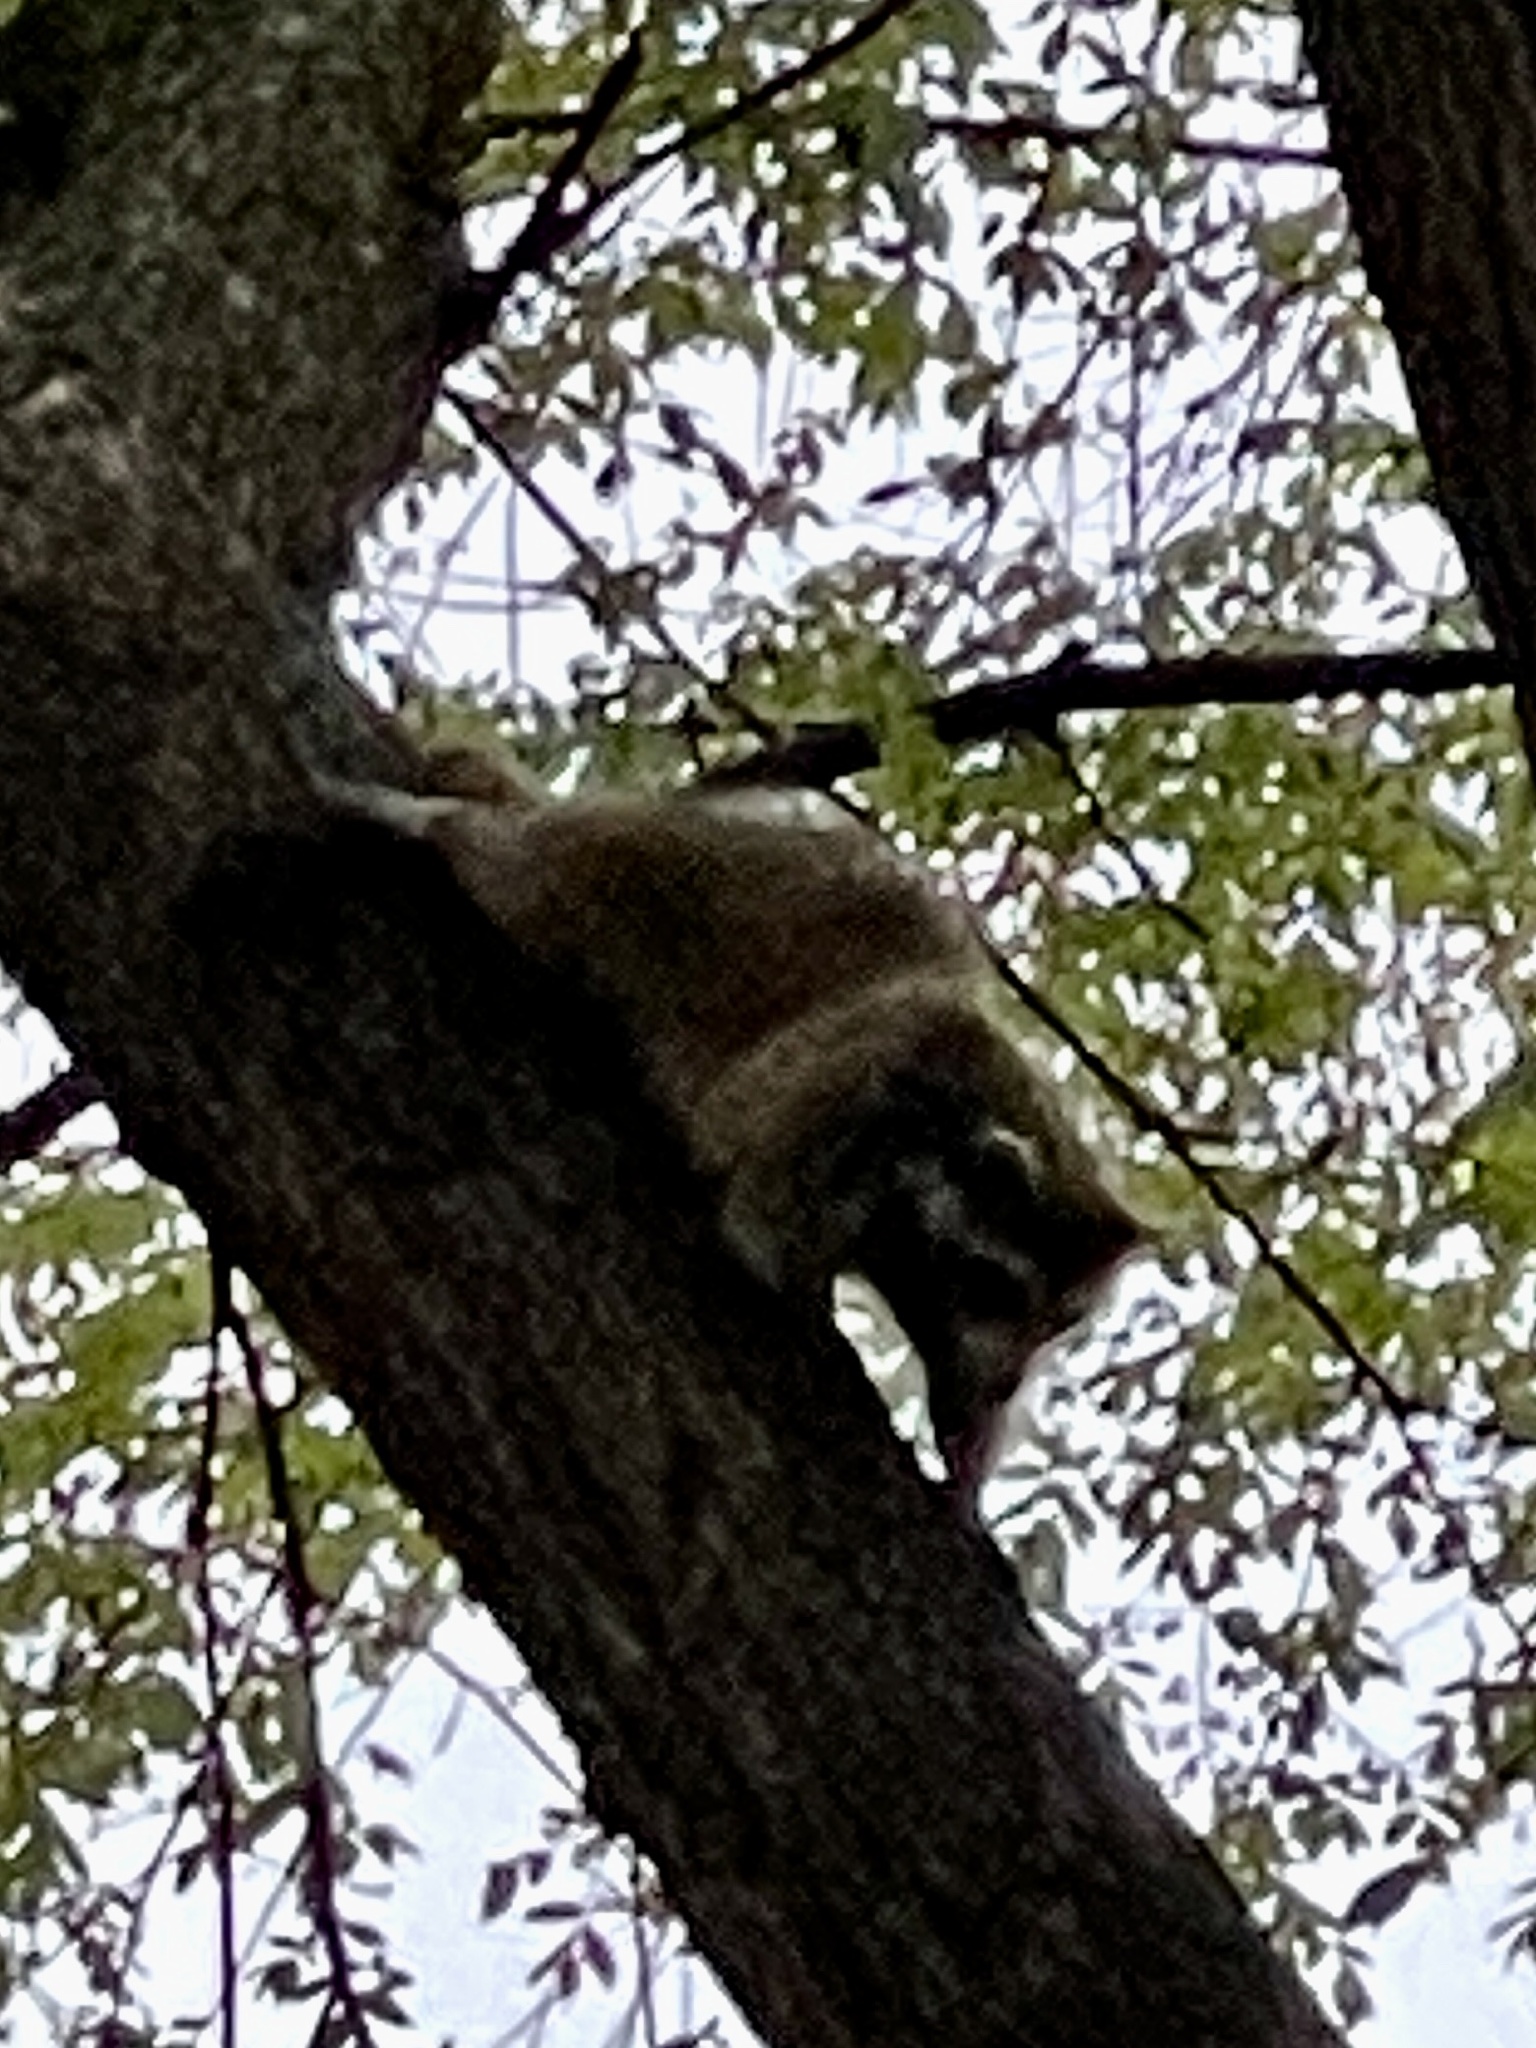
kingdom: Animalia
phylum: Chordata
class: Mammalia
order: Carnivora
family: Procyonidae
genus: Procyon
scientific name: Procyon lotor
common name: Raccoon
